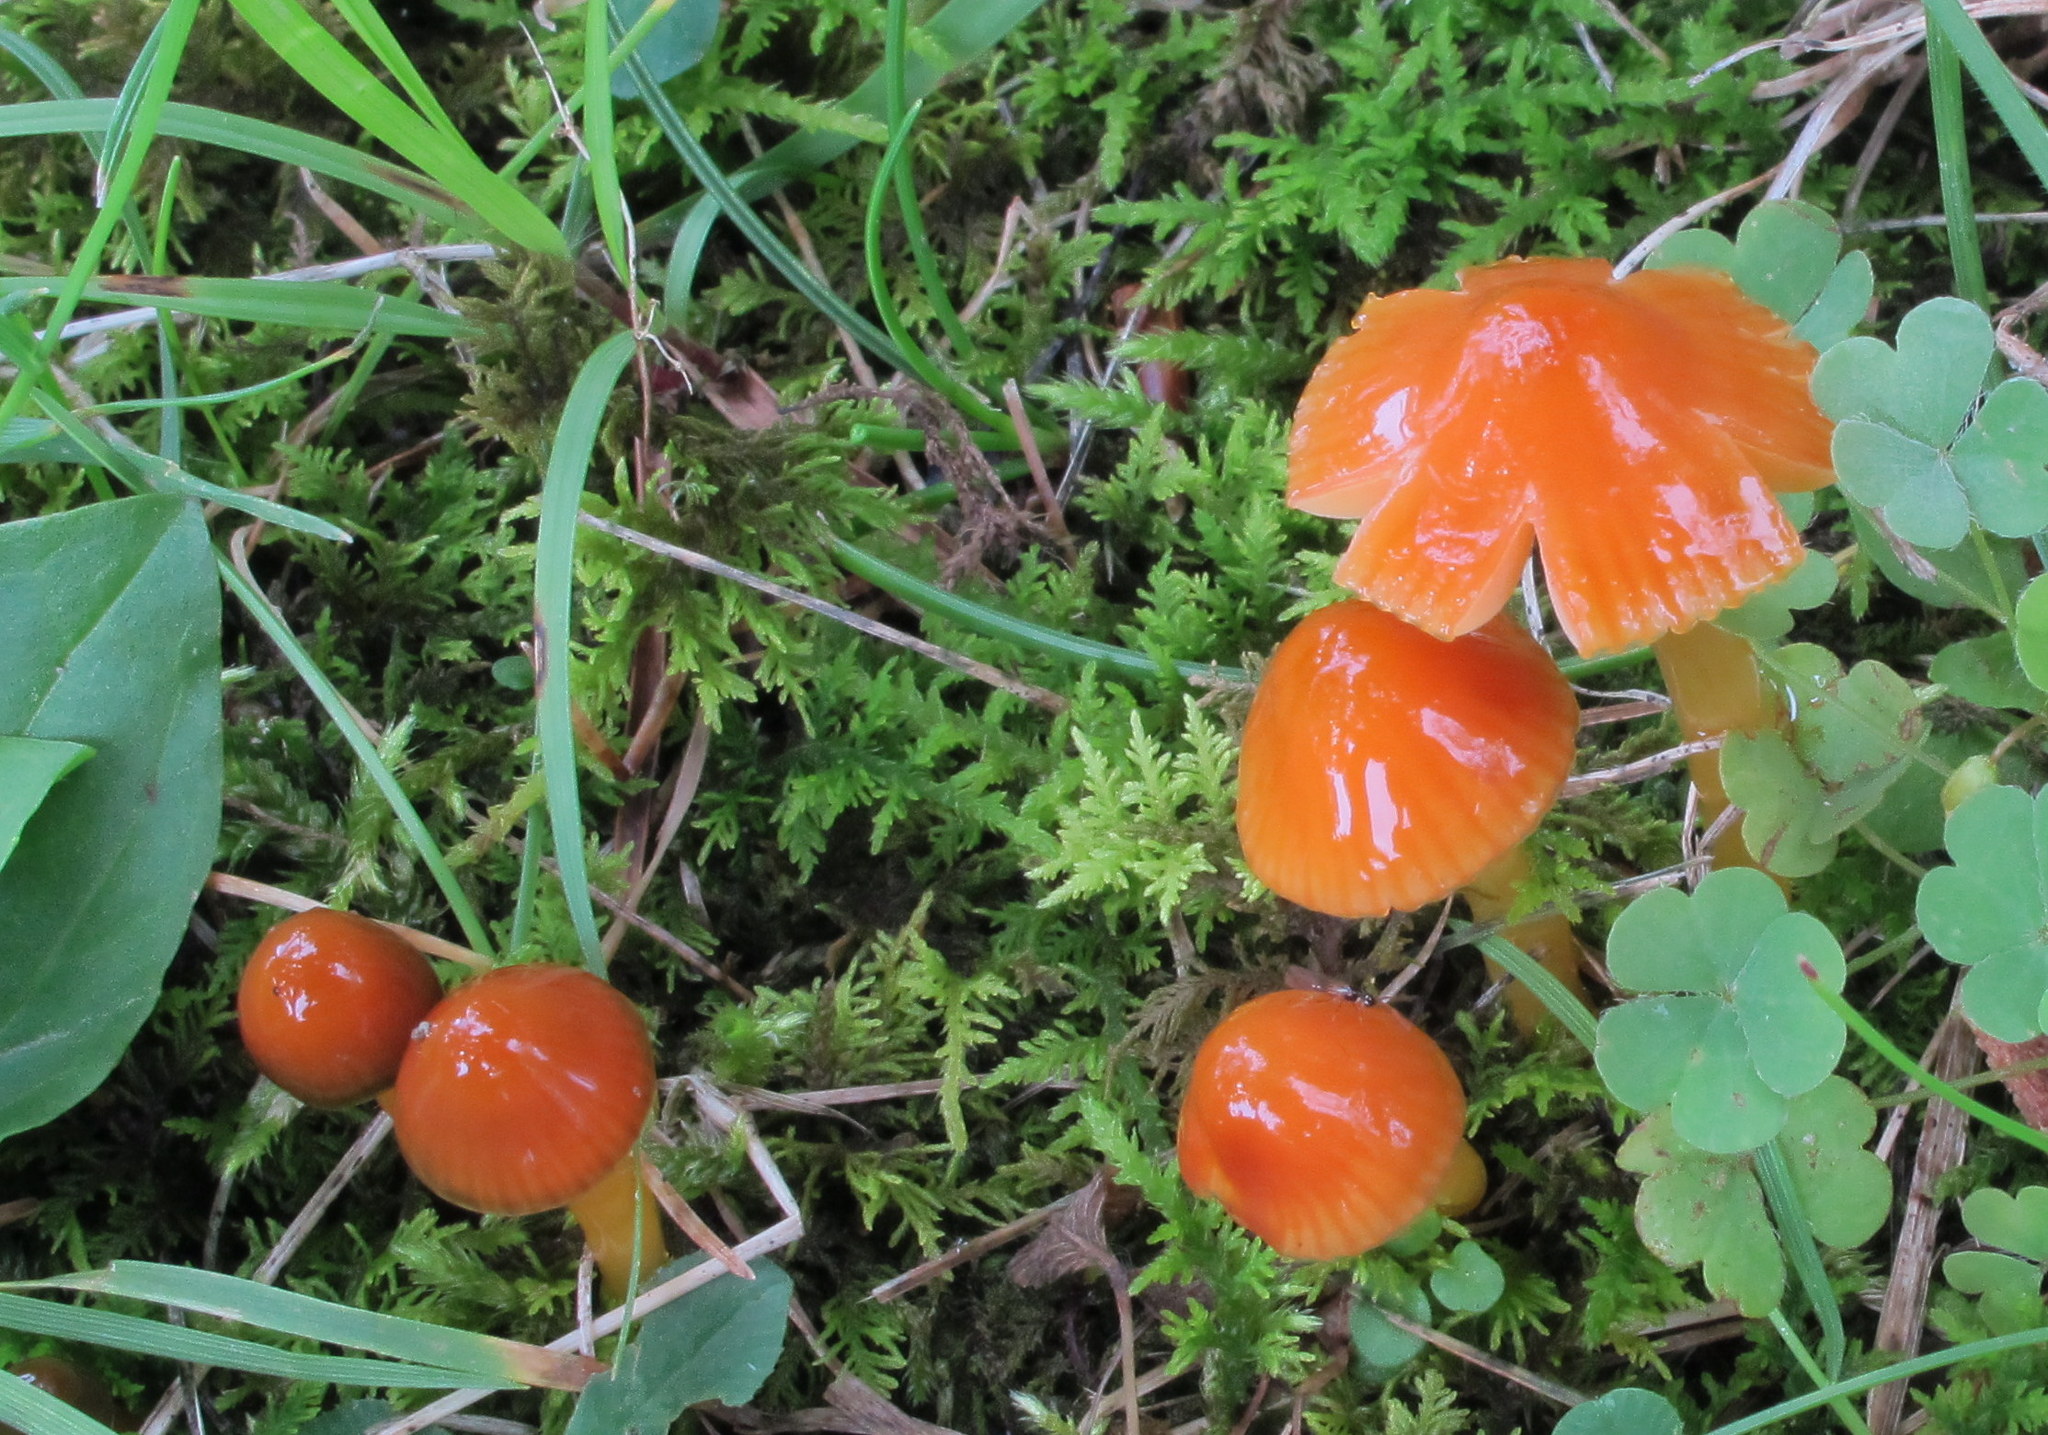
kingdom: Fungi
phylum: Basidiomycota
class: Agaricomycetes
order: Agaricales
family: Hygrophoraceae
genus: Gliophorus
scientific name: Gliophorus psittacinus
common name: Parrot wax-cap
